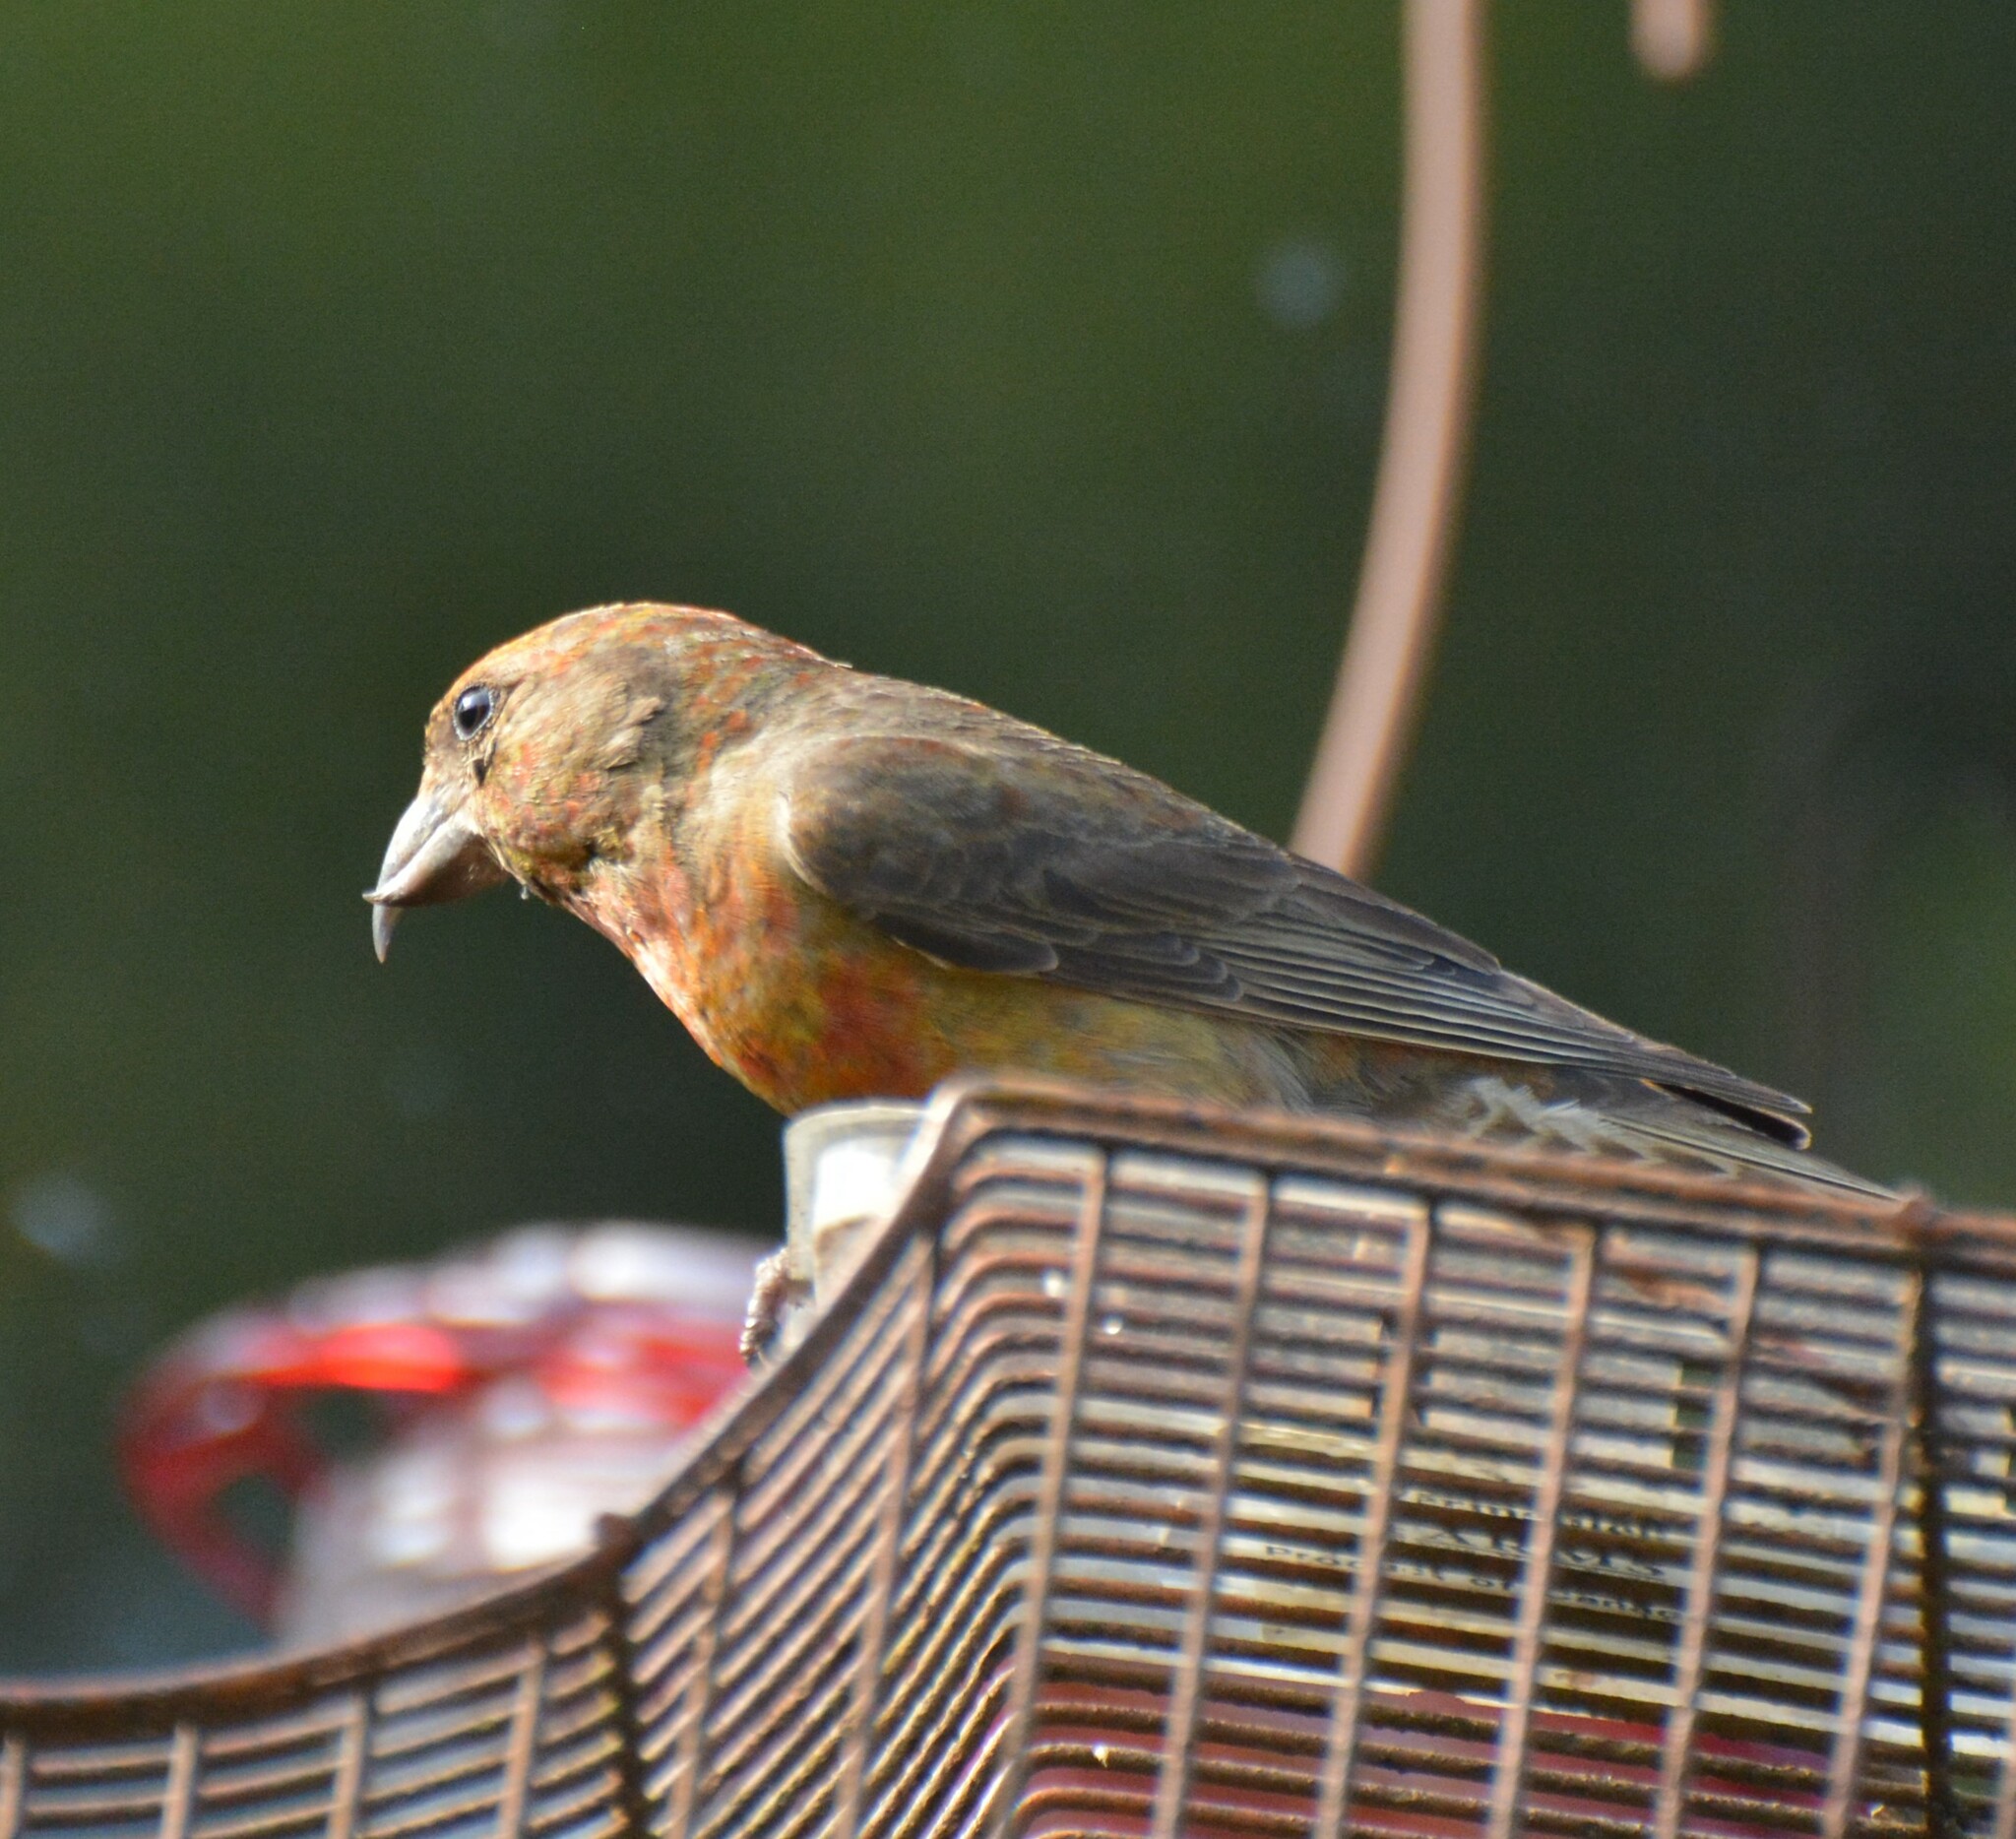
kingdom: Animalia
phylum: Chordata
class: Aves
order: Passeriformes
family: Fringillidae
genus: Loxia
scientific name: Loxia curvirostra
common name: Red crossbill
